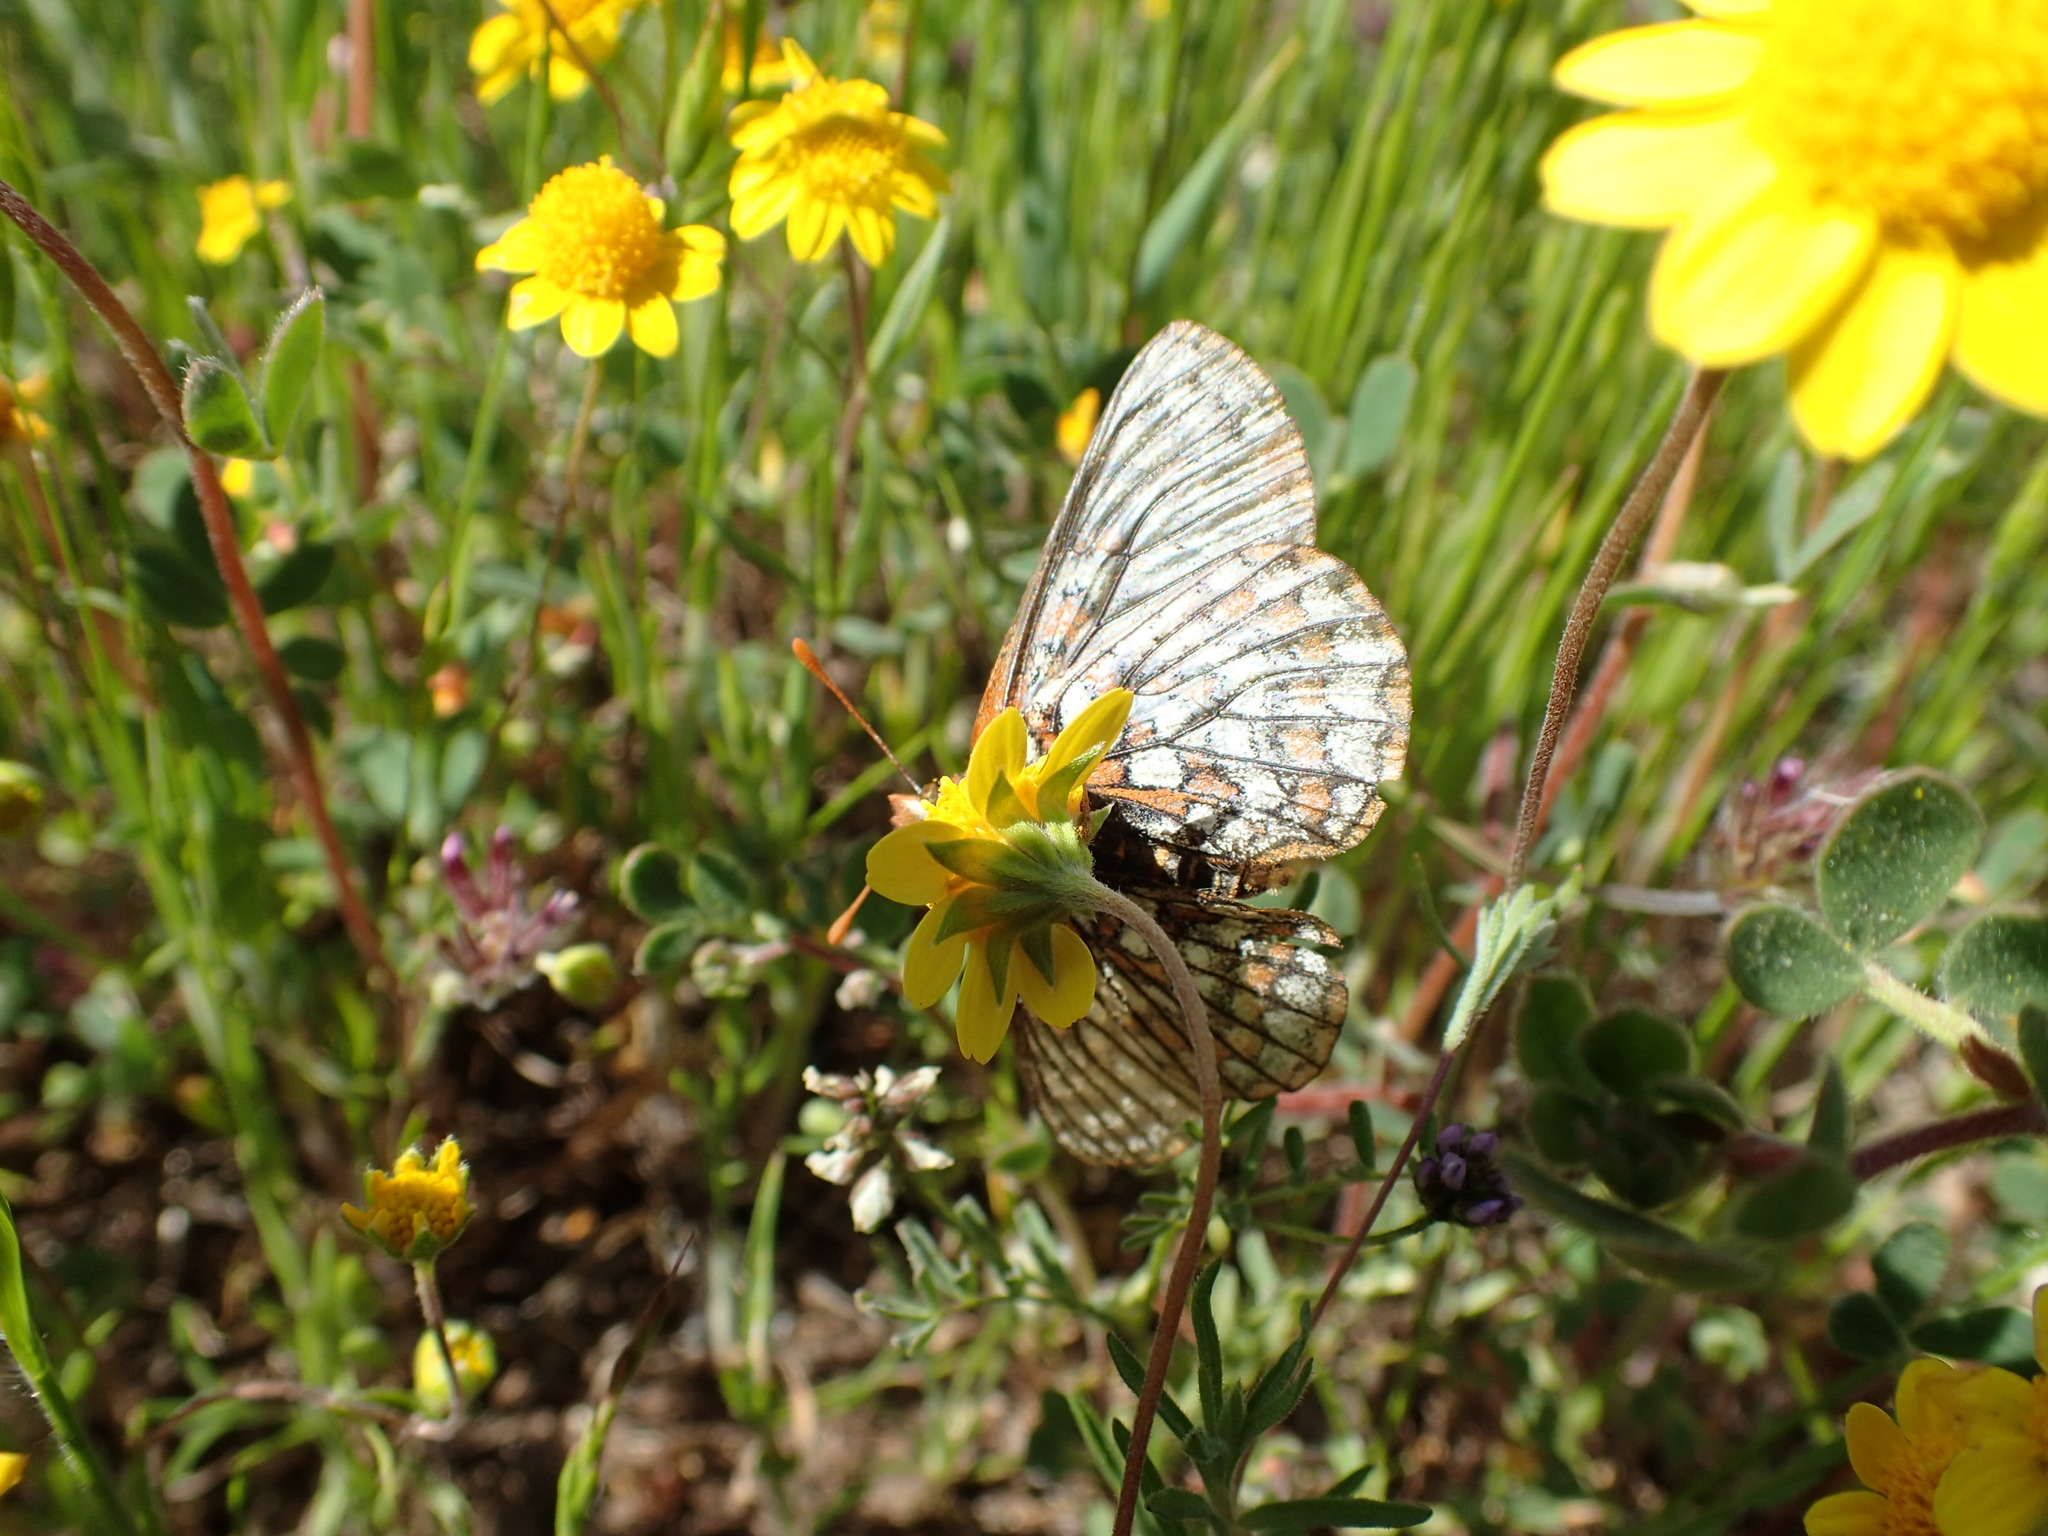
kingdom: Animalia
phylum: Arthropoda
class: Insecta
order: Lepidoptera
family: Nymphalidae
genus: Occidryas
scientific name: Occidryas editha
